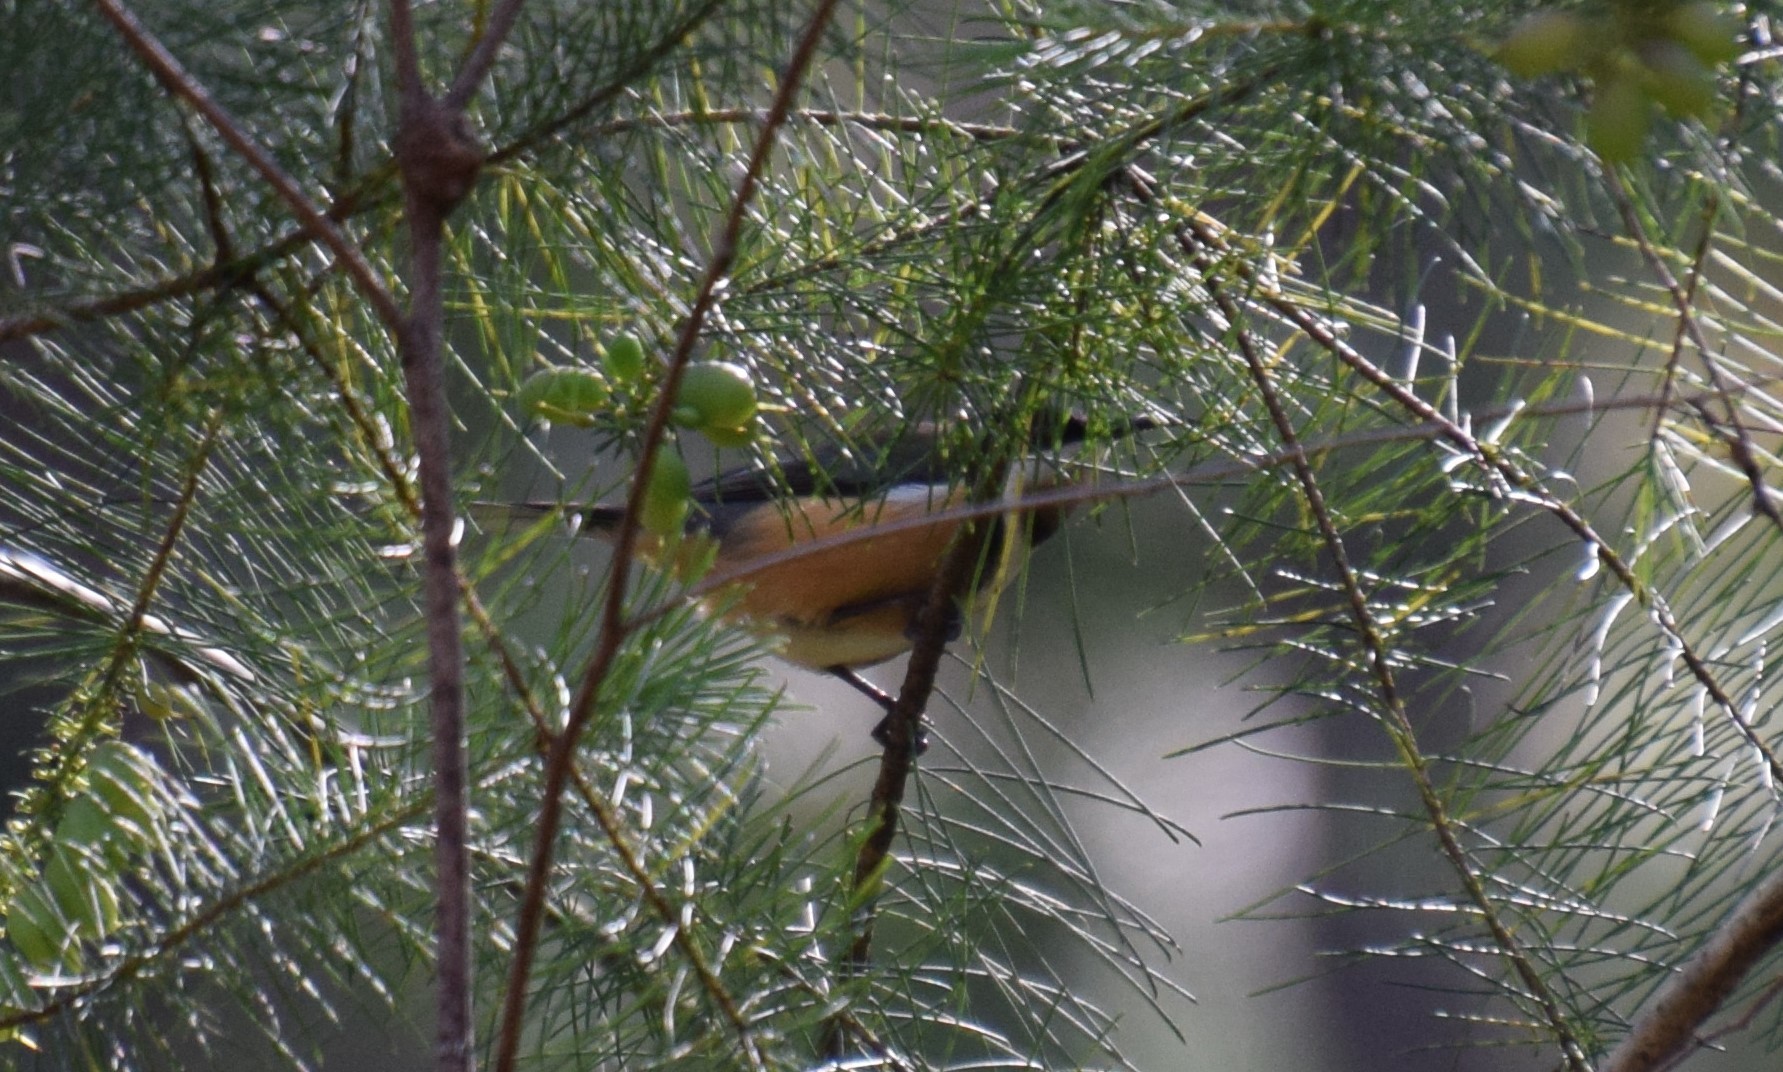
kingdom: Animalia
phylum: Chordata
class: Aves
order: Passeriformes
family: Meliphagidae
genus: Acanthorhynchus
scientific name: Acanthorhynchus tenuirostris
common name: Eastern spinebill
